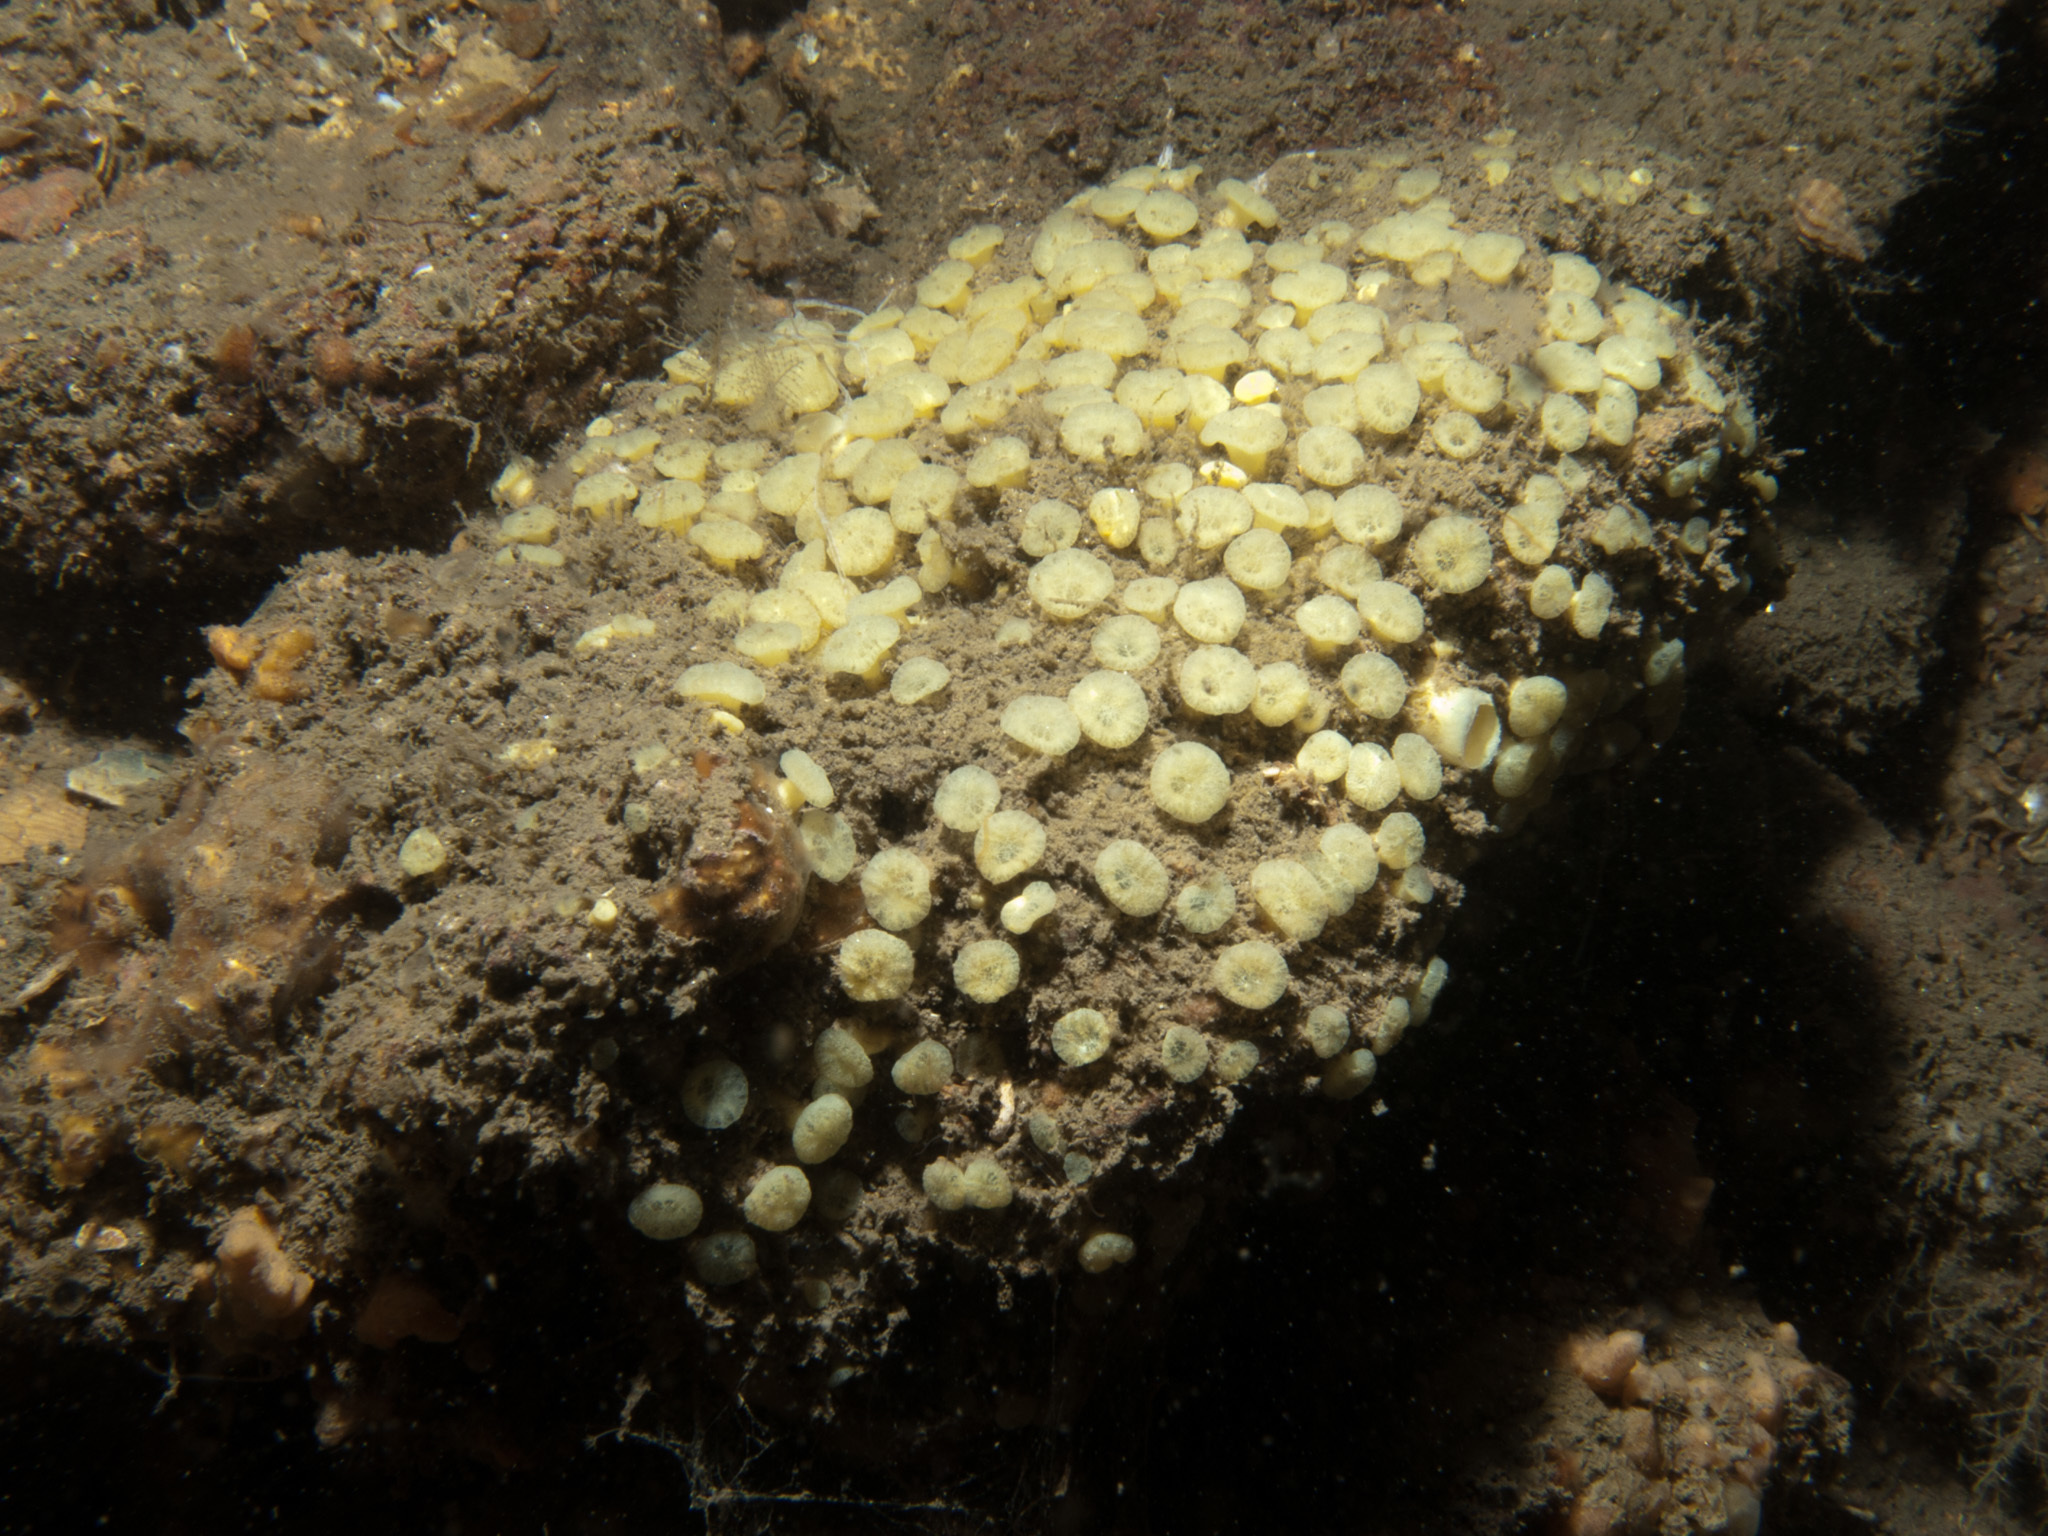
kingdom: Animalia
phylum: Porifera
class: Demospongiae
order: Clionaida
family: Clionaidae
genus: Cliona
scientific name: Cliona celata
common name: Boring sponge
